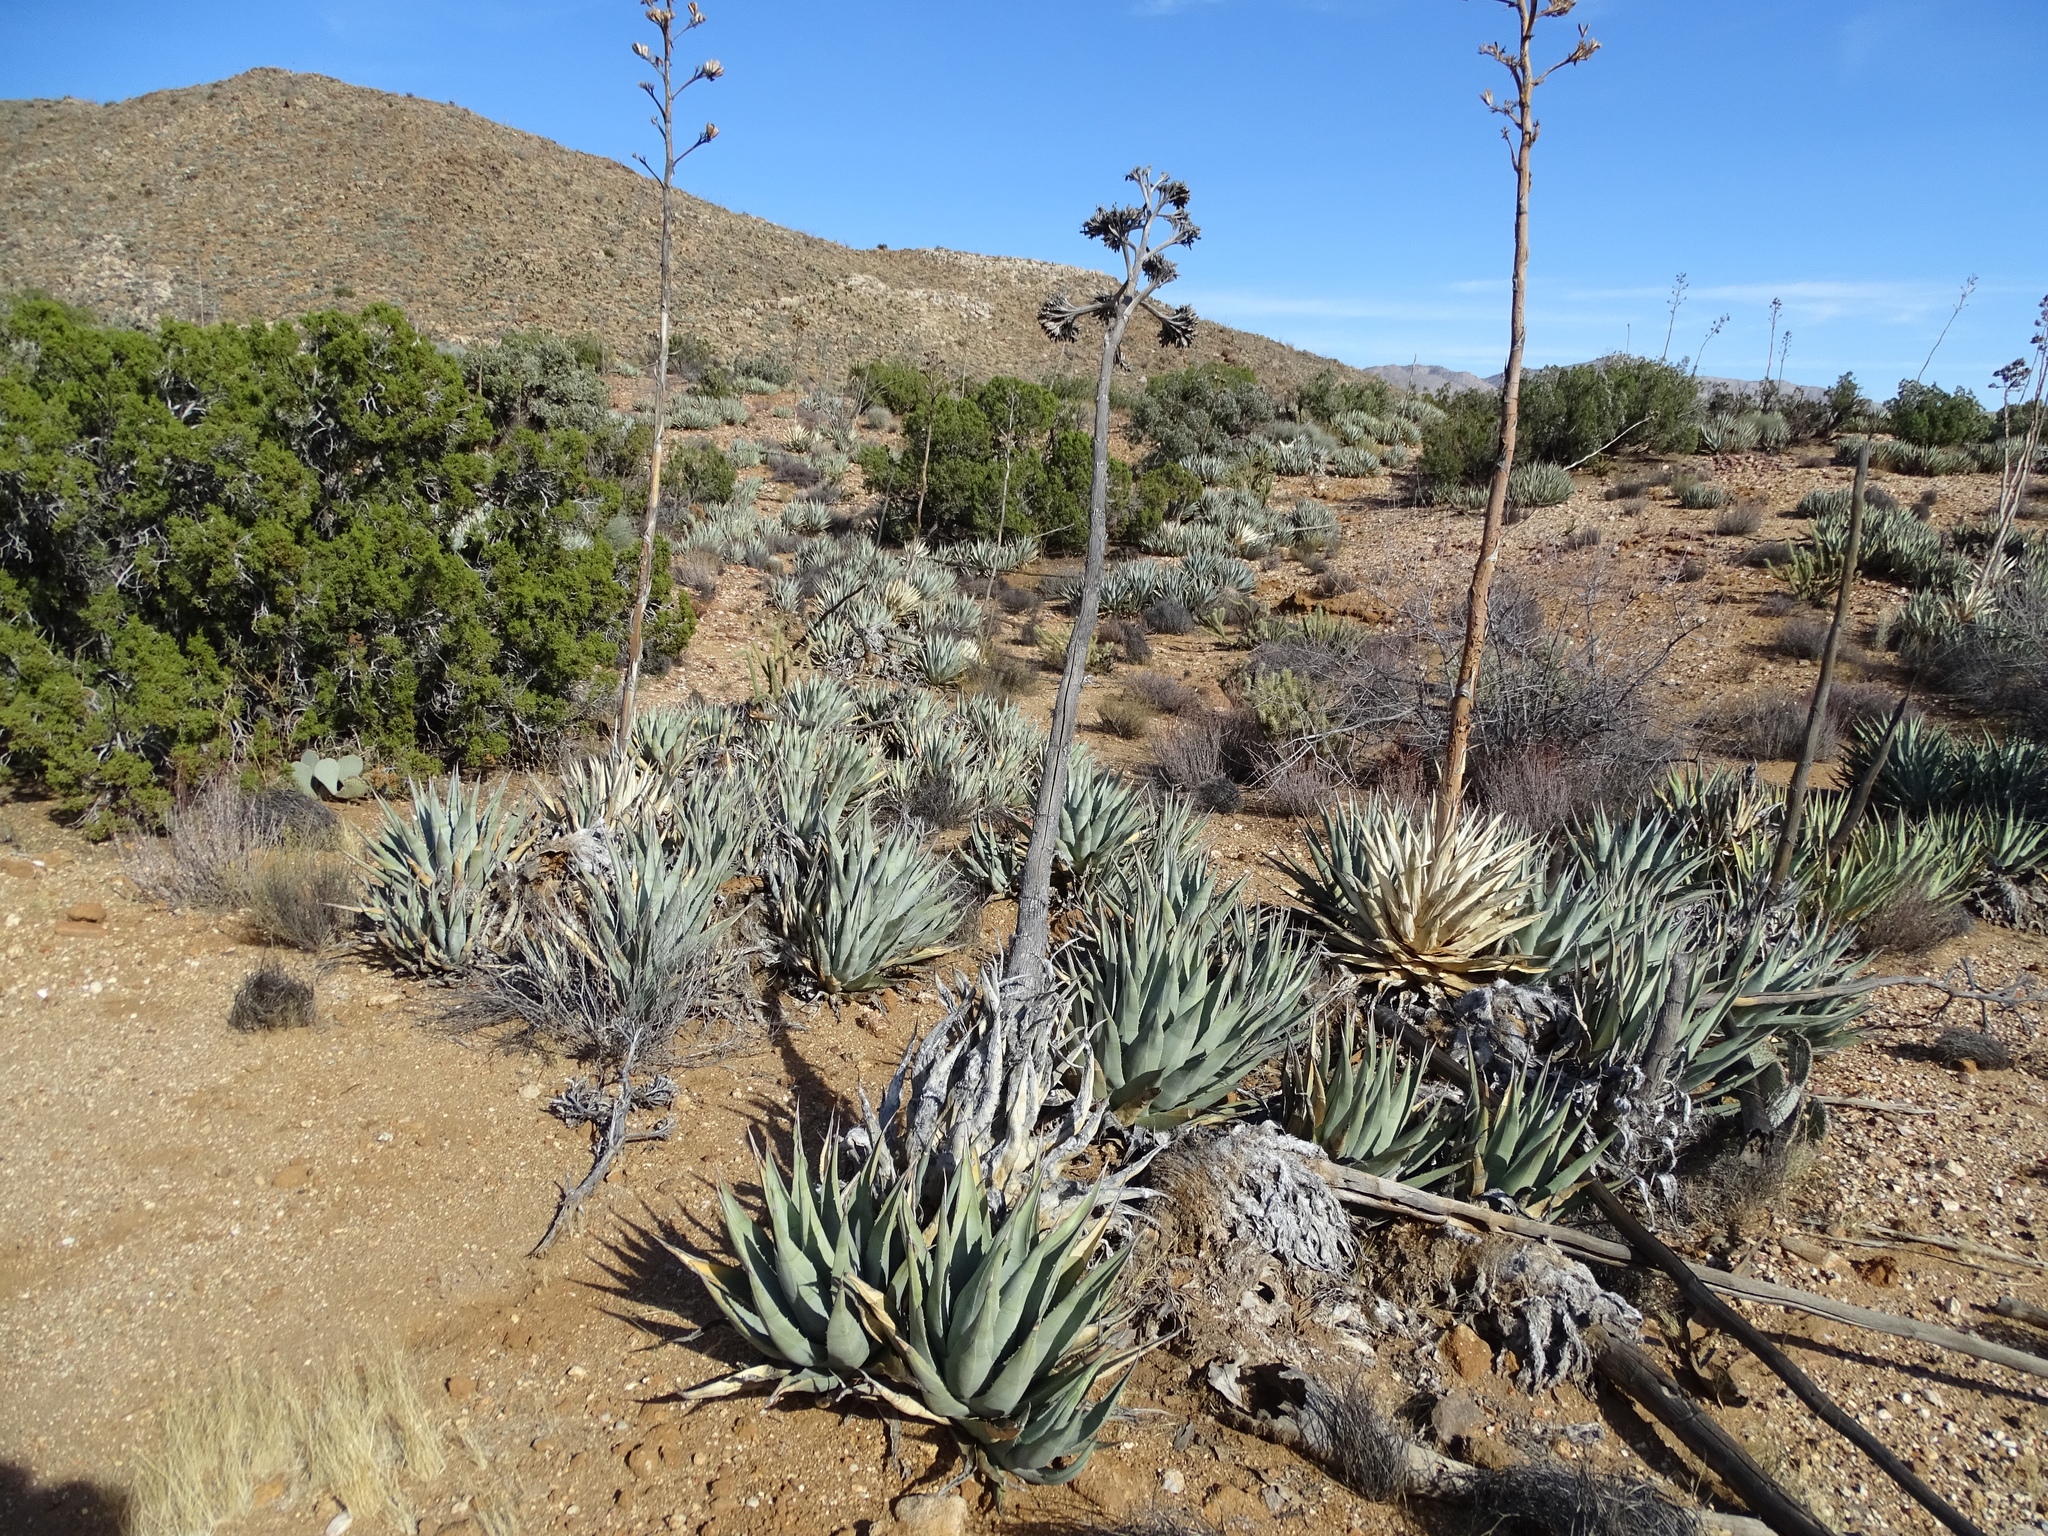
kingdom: Plantae
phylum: Tracheophyta
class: Liliopsida
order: Asparagales
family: Asparagaceae
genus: Agave
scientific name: Agave deserti
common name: Desert agave
